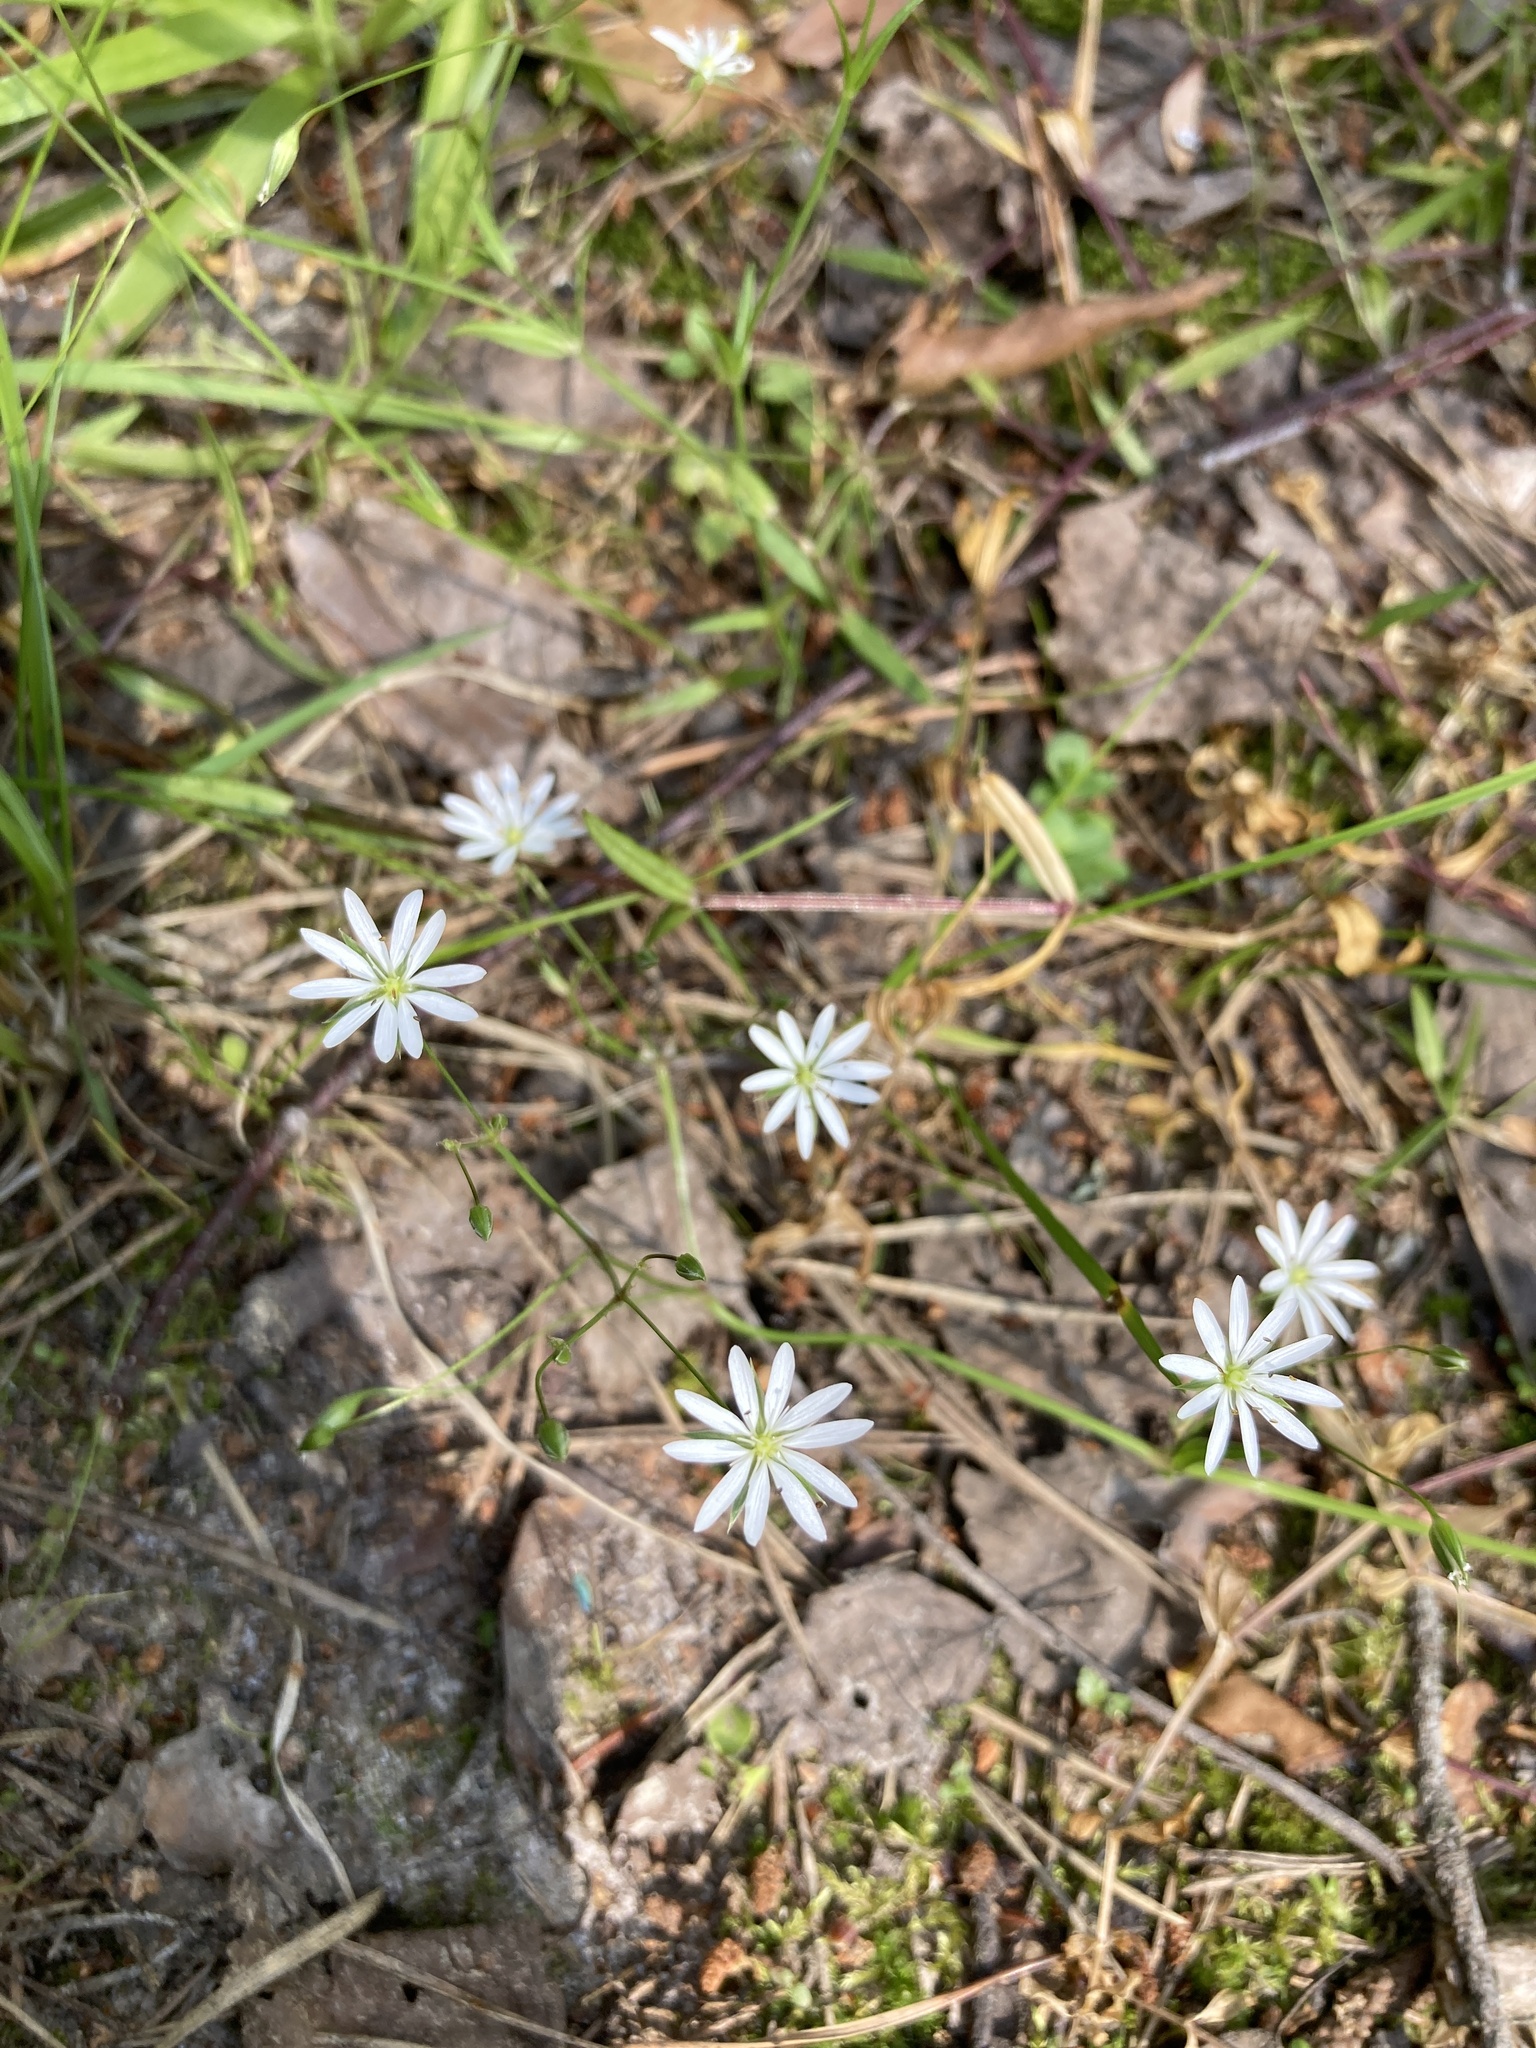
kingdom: Plantae
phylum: Tracheophyta
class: Magnoliopsida
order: Caryophyllales
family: Caryophyllaceae
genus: Stellaria
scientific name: Stellaria graminea
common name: Grass-like starwort
